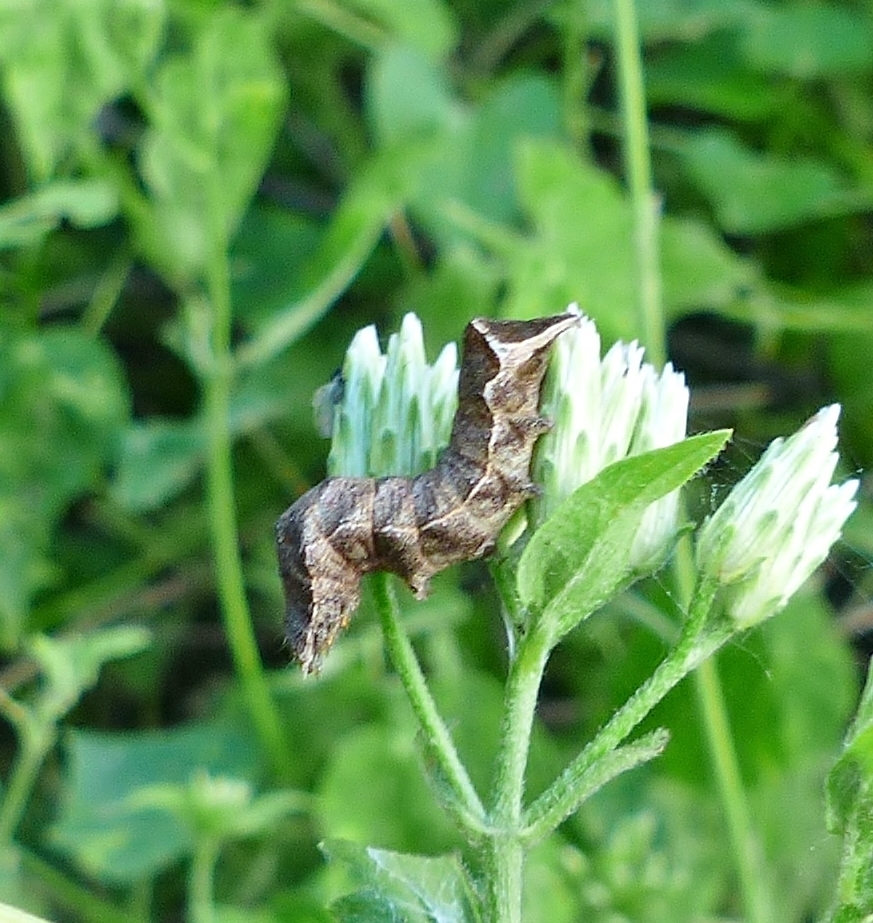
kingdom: Animalia
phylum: Arthropoda
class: Insecta
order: Lepidoptera
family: Noctuidae
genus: Condica
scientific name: Condica albigera
